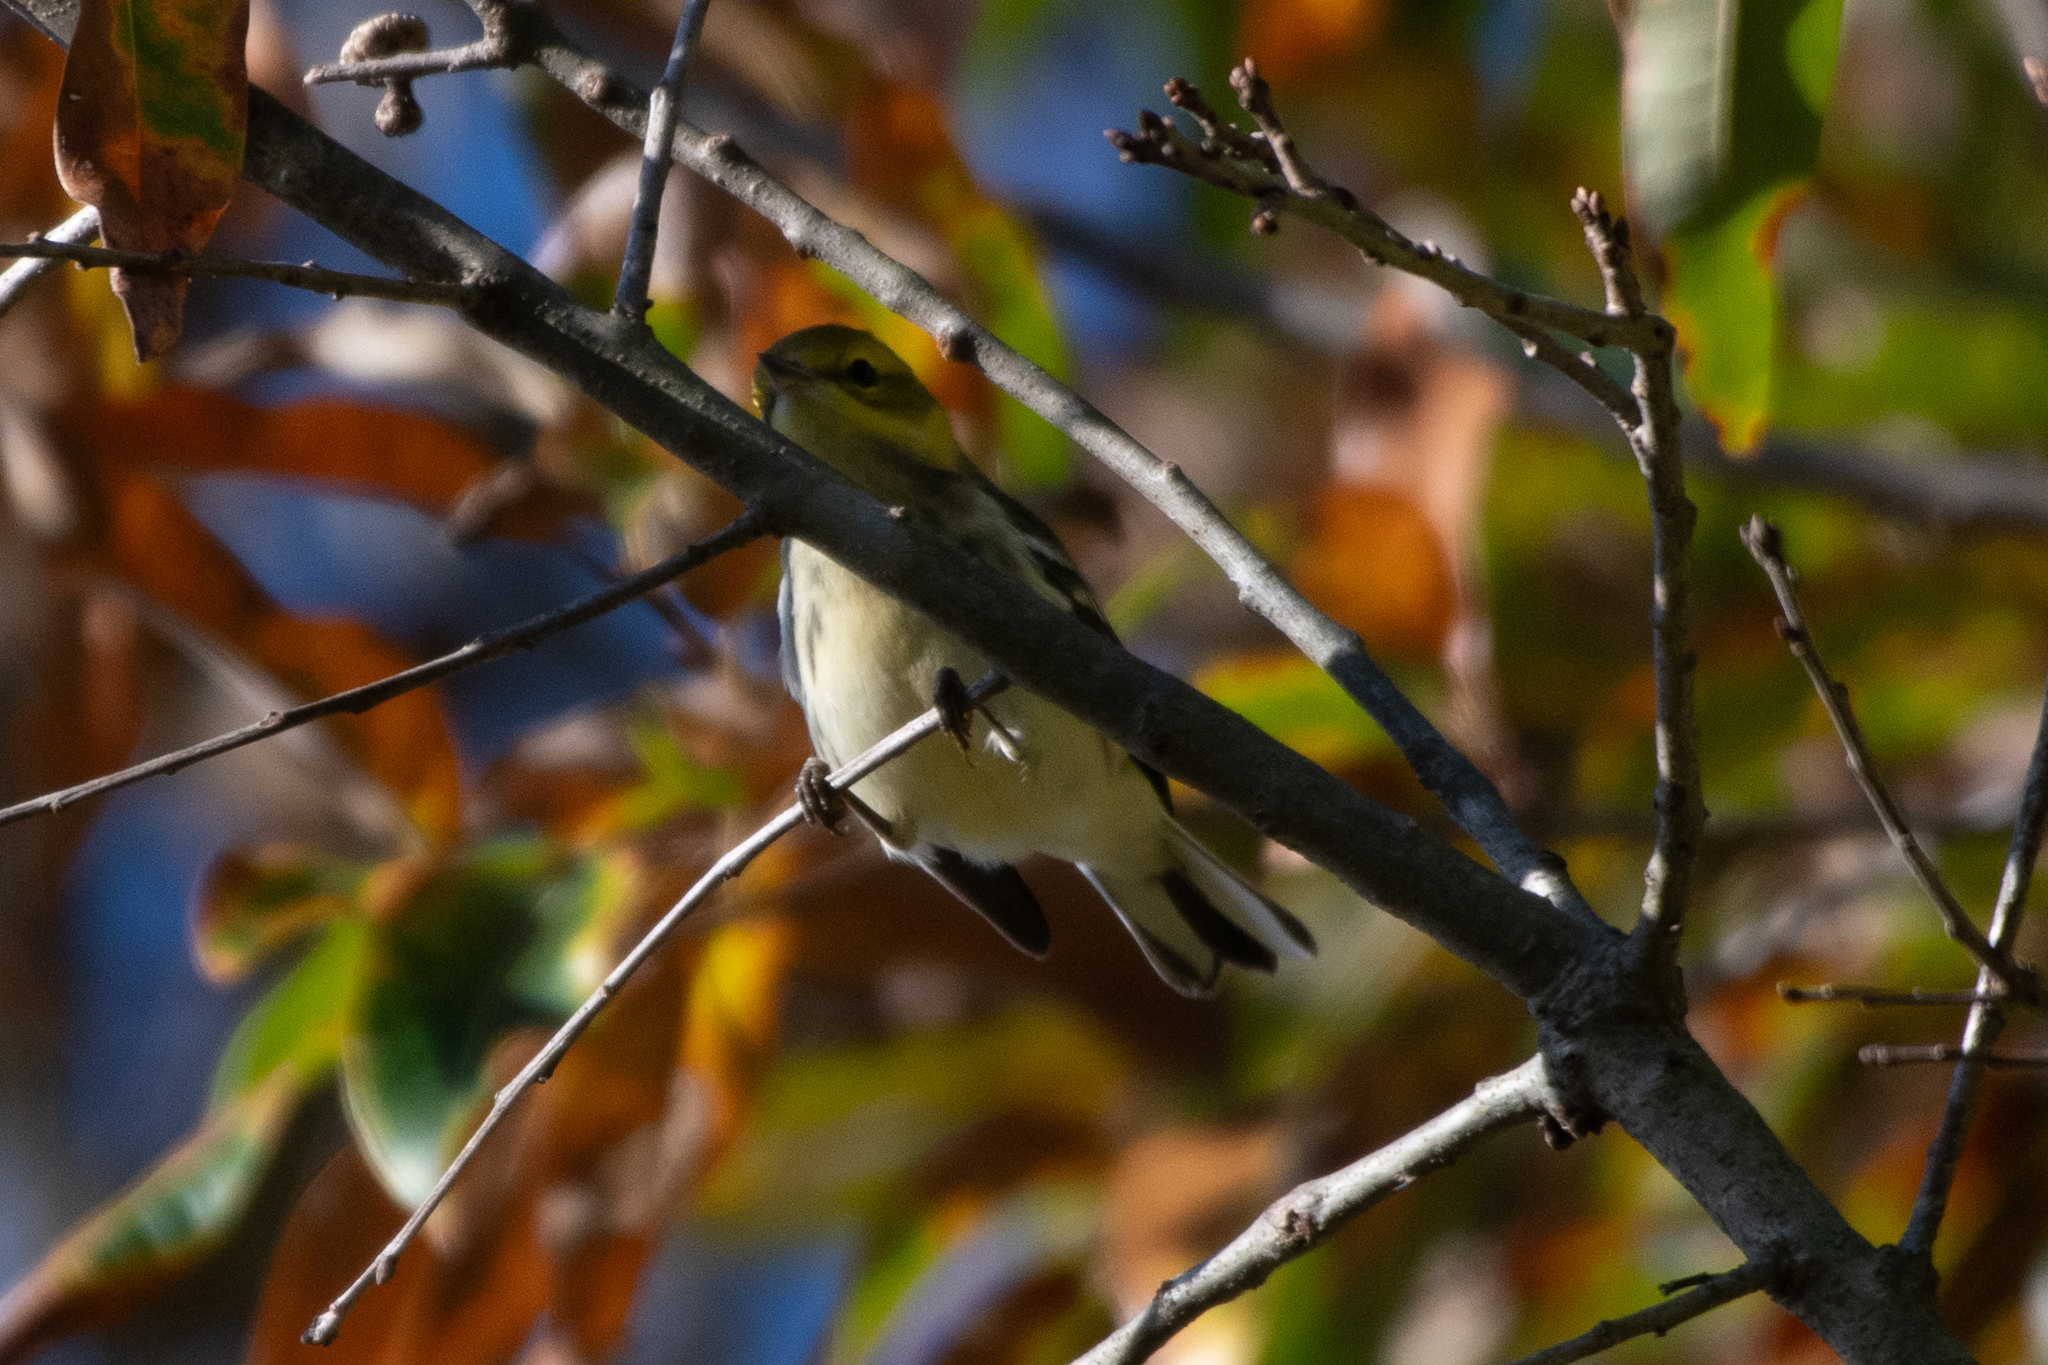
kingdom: Animalia
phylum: Chordata
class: Aves
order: Passeriformes
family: Parulidae
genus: Setophaga
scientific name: Setophaga virens
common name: Black-throated green warbler
